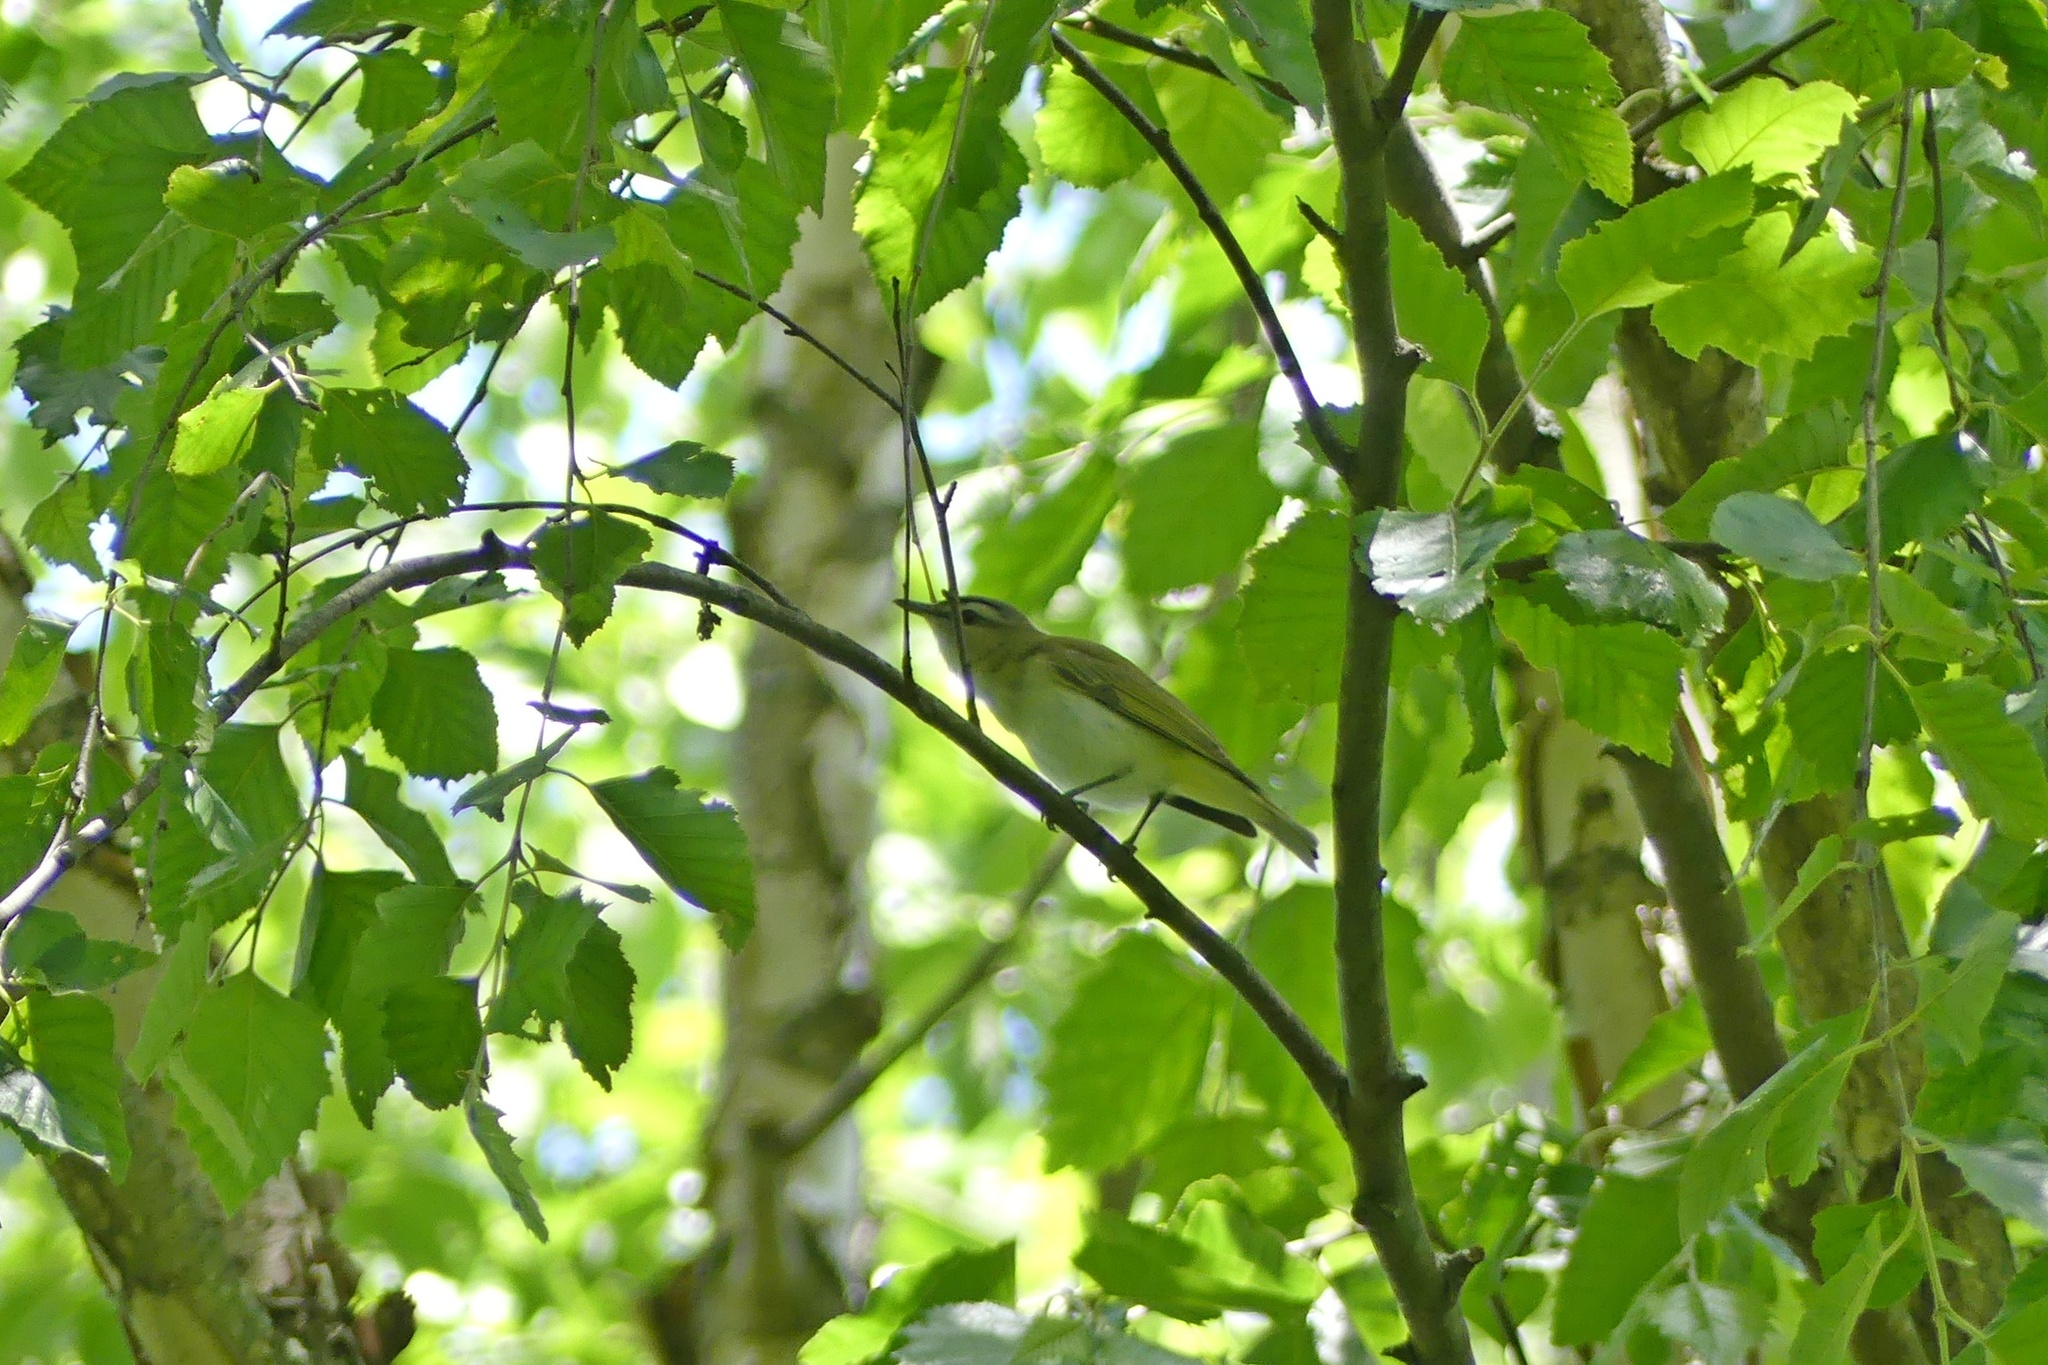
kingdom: Animalia
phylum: Chordata
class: Aves
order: Passeriformes
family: Vireonidae
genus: Vireo
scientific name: Vireo olivaceus
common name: Red-eyed vireo
